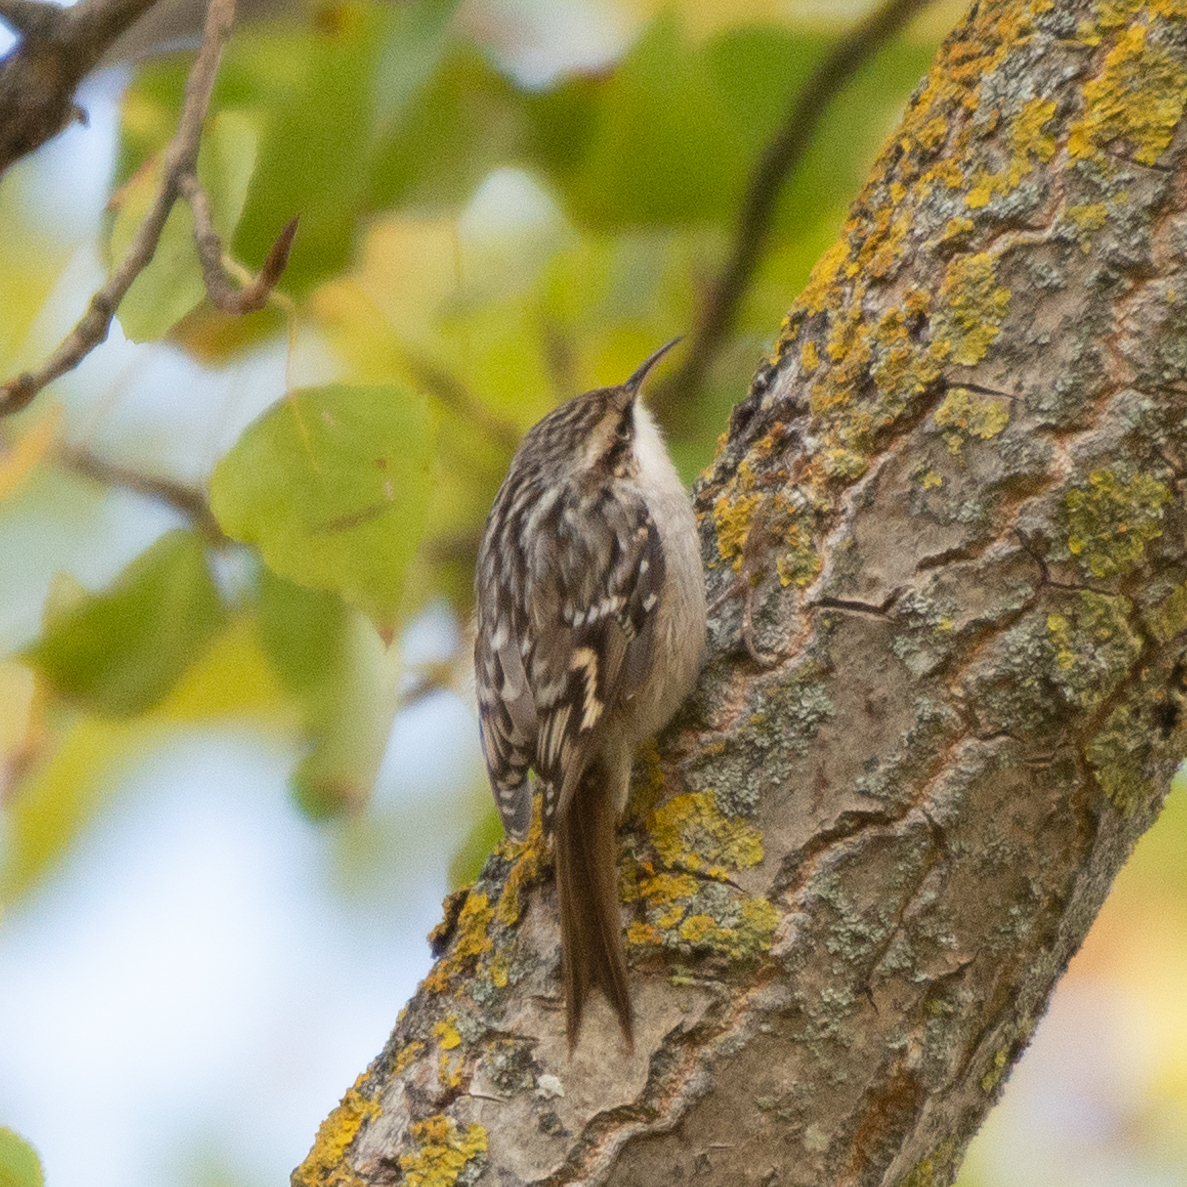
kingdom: Animalia
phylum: Chordata
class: Aves
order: Passeriformes
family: Certhiidae
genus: Certhia
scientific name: Certhia brachydactyla
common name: Short-toed treecreeper
